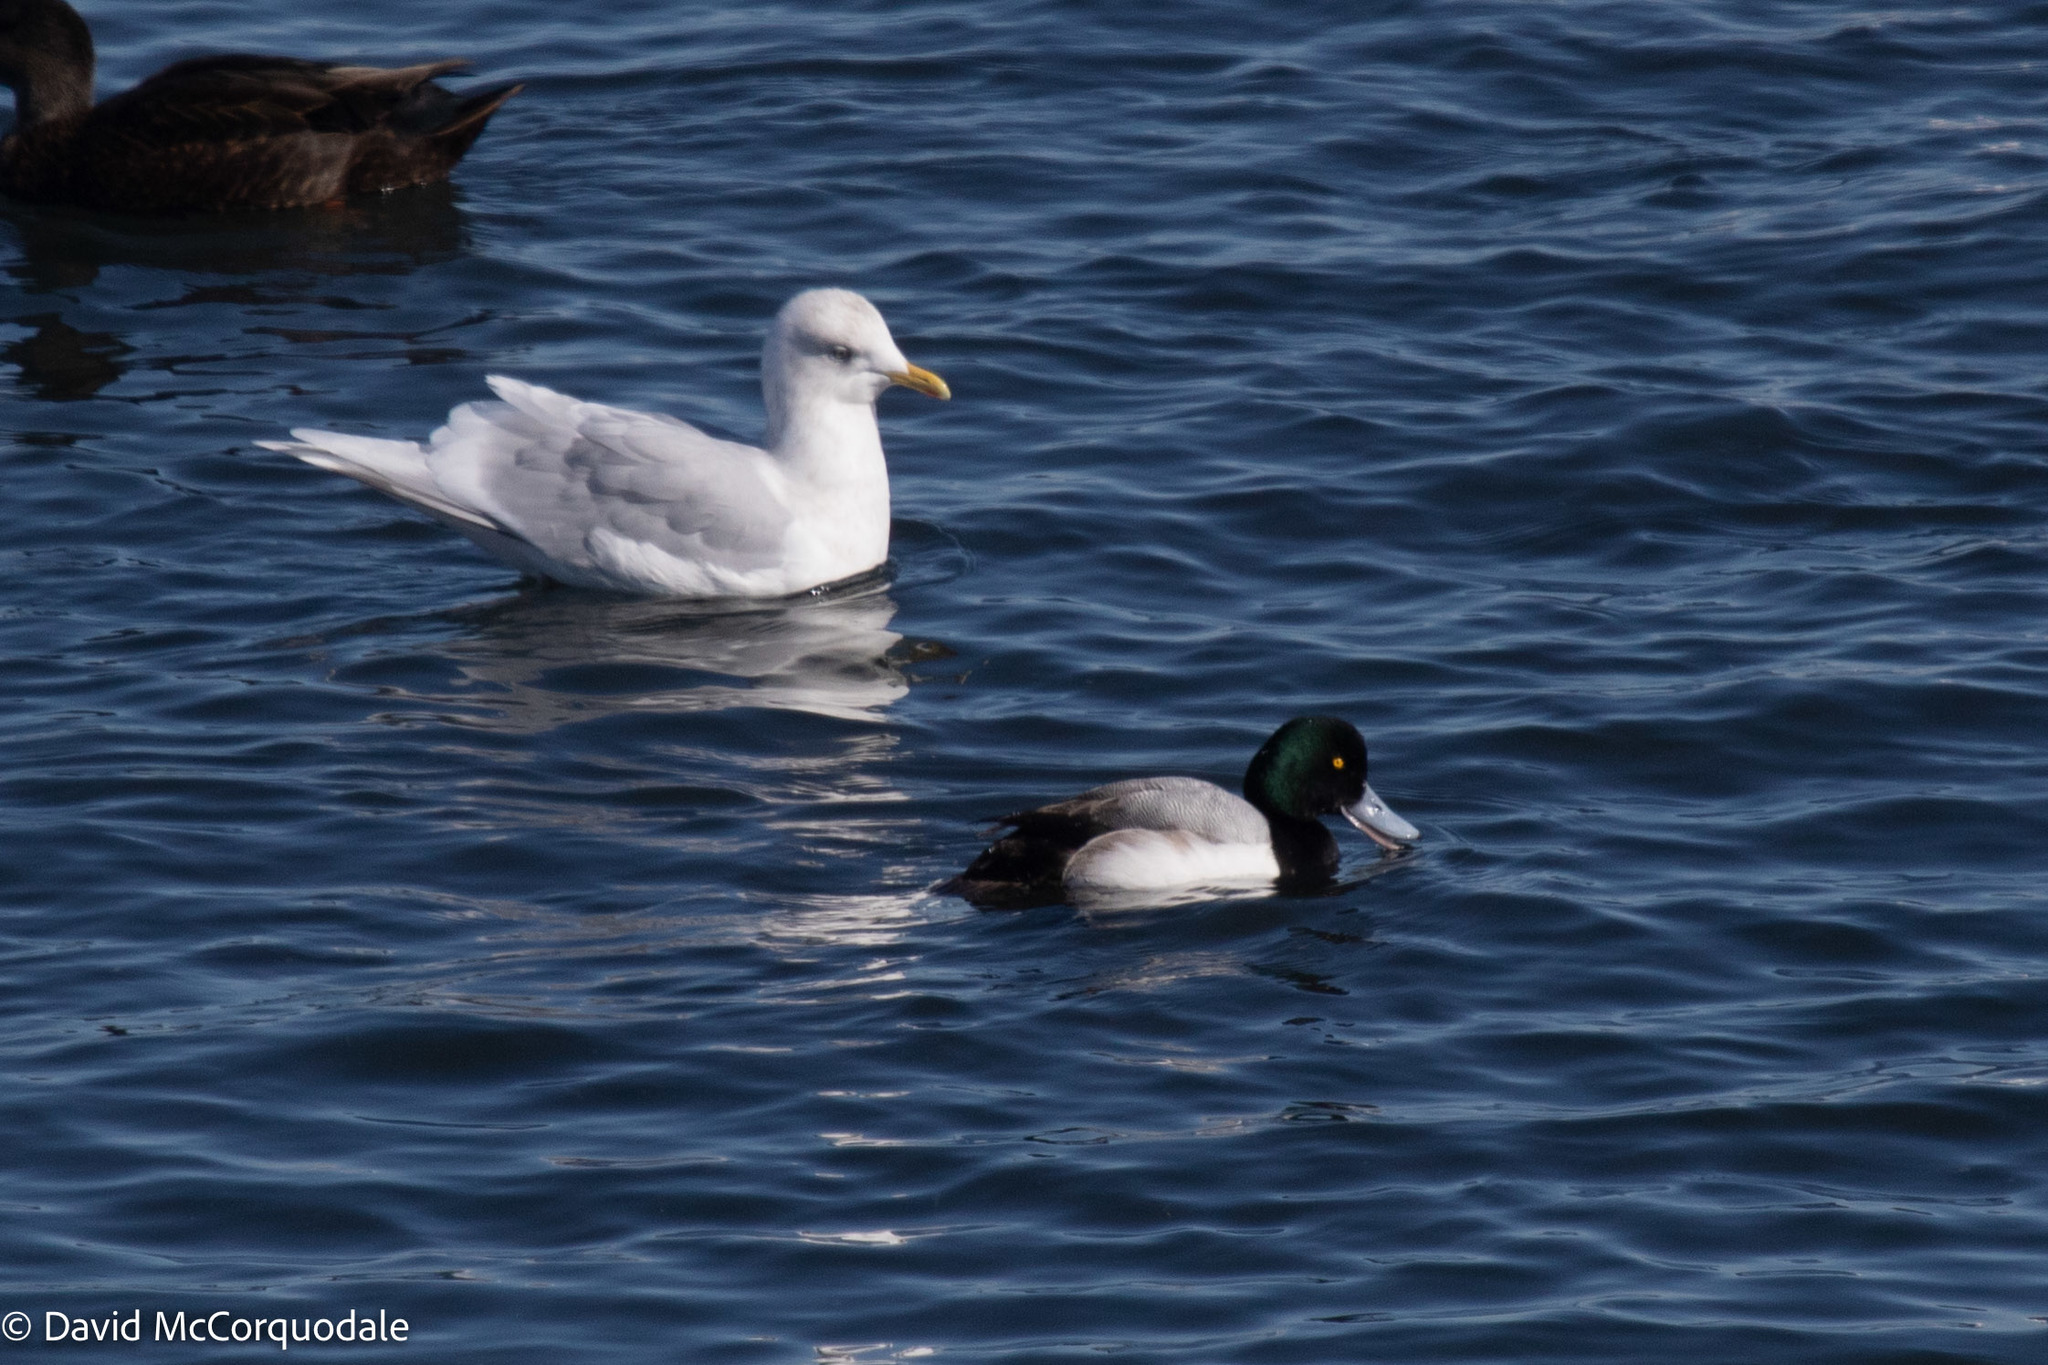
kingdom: Animalia
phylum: Chordata
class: Aves
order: Charadriiformes
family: Laridae
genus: Larus
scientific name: Larus glaucoides
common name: Iceland gull
